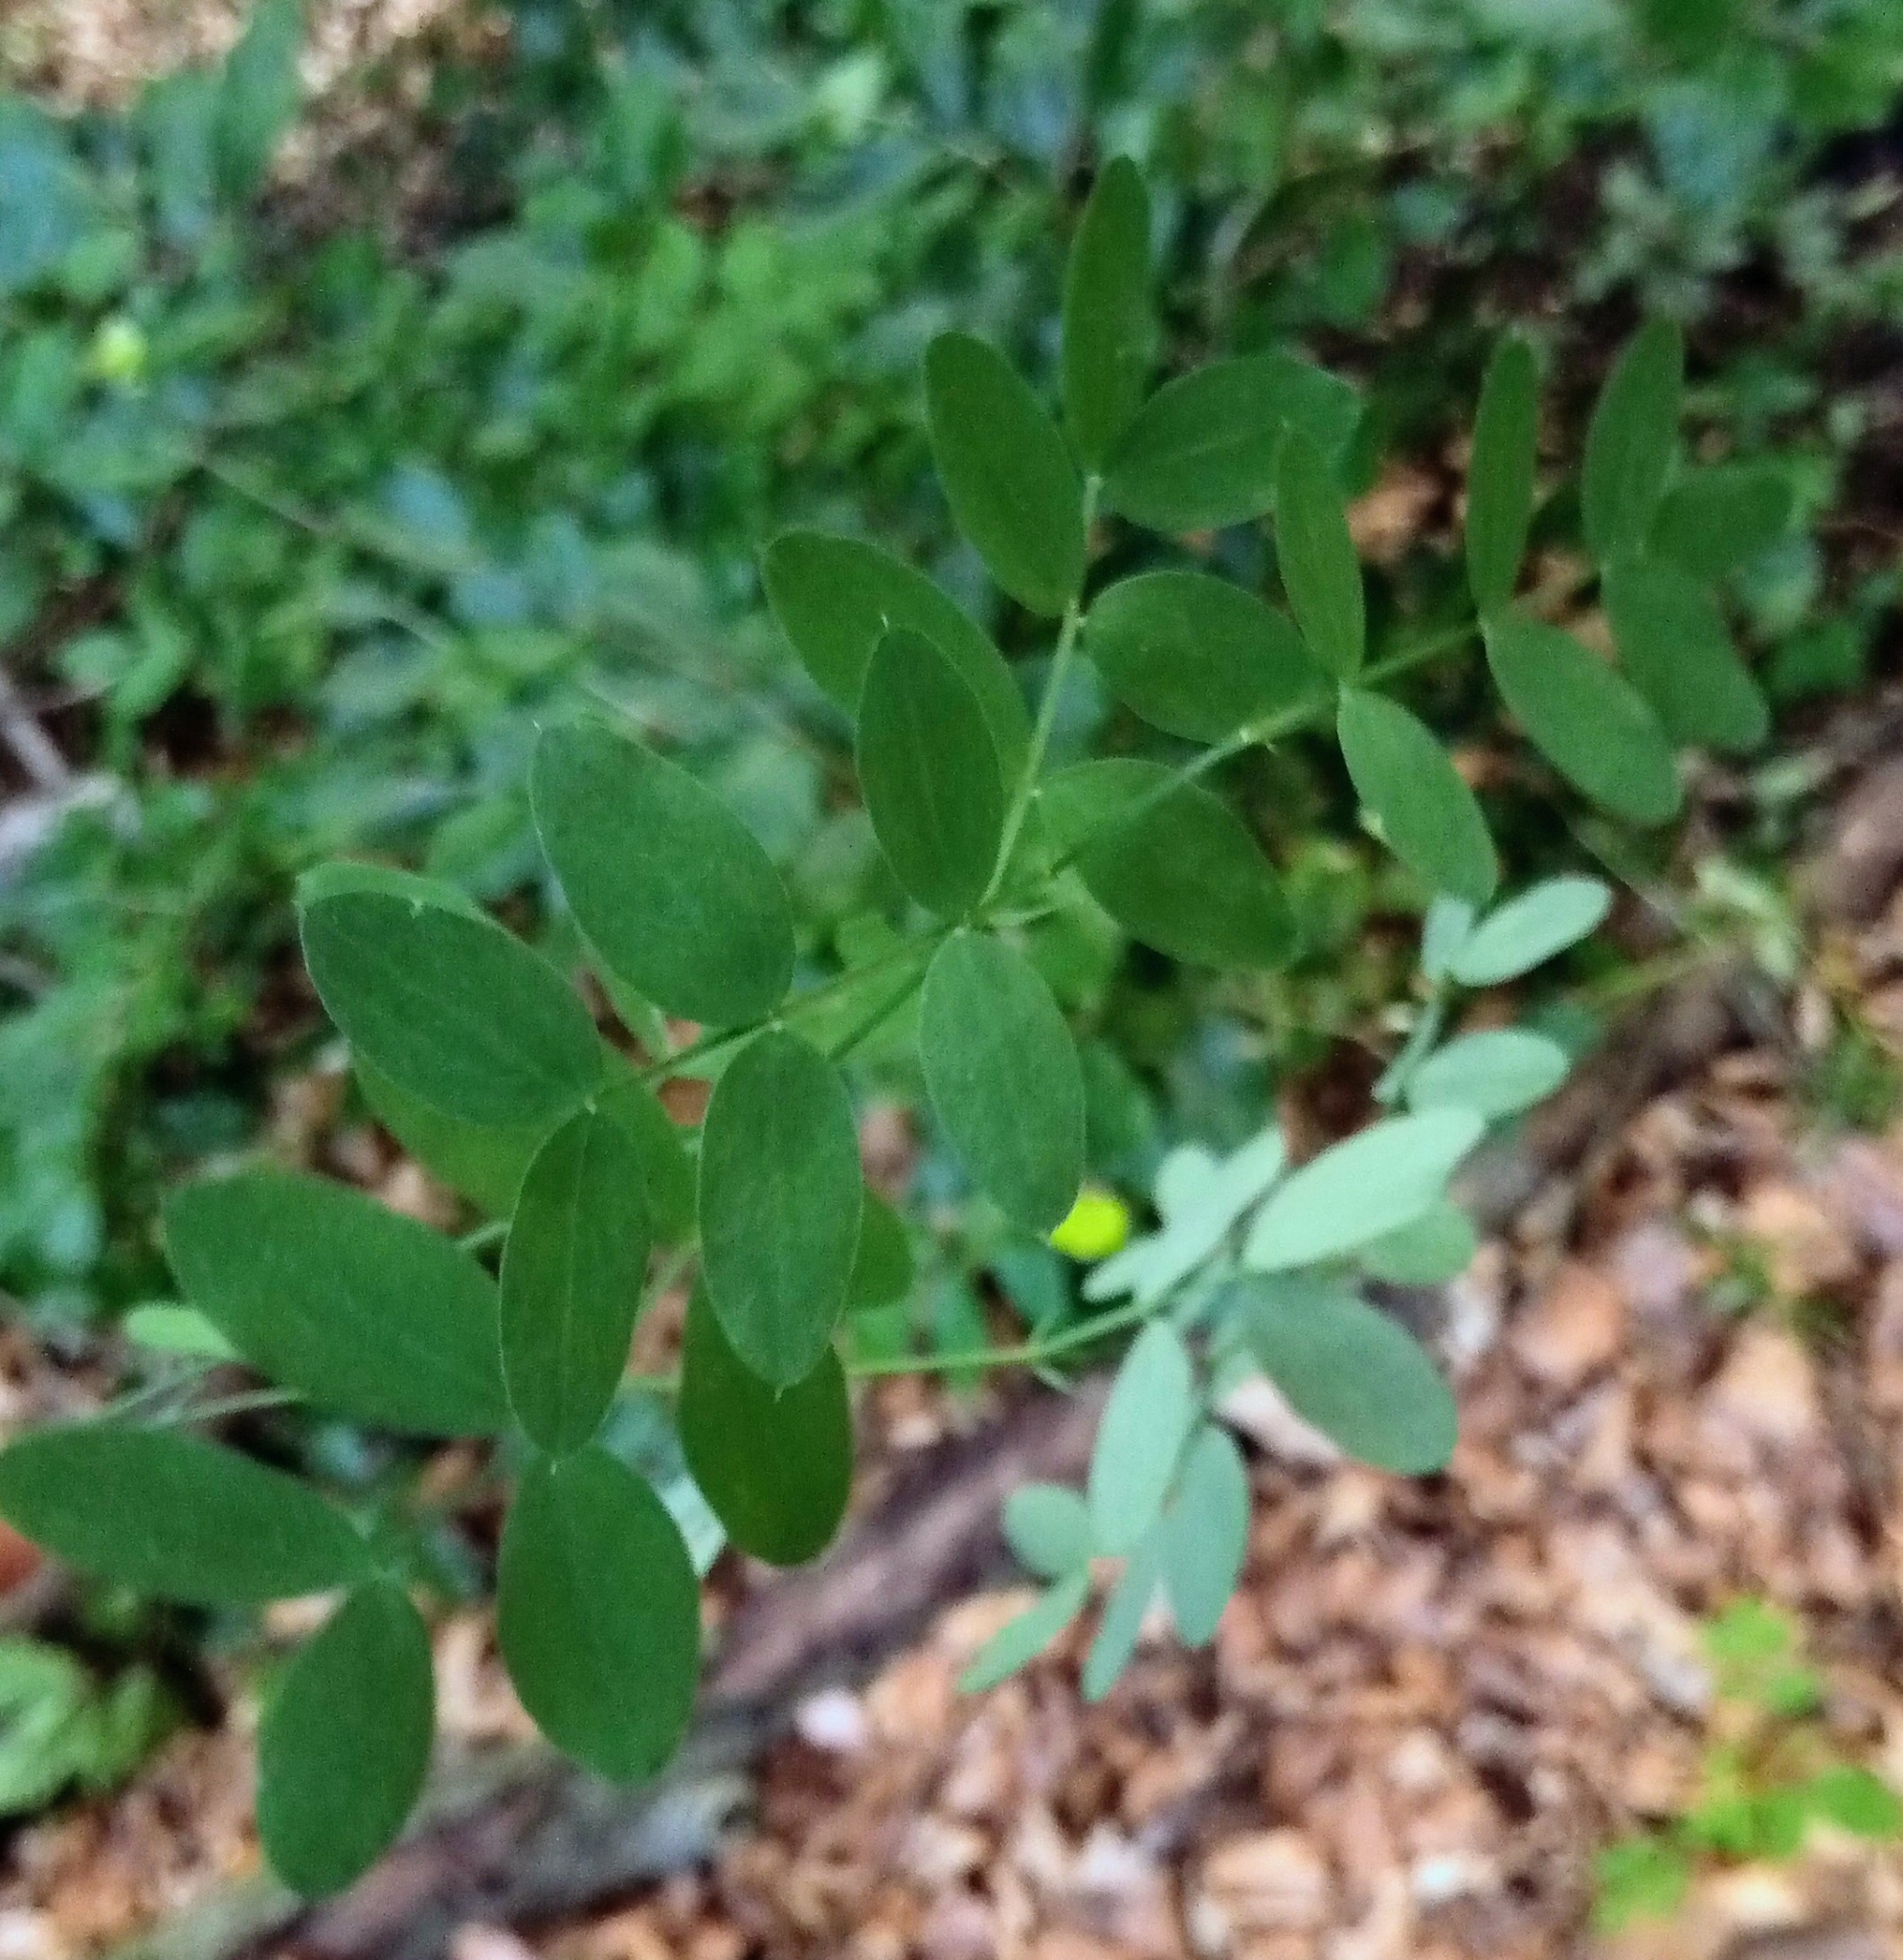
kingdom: Plantae
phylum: Tracheophyta
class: Magnoliopsida
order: Fabales
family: Fabaceae
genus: Lathyrus
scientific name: Lathyrus niger
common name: Black pea
